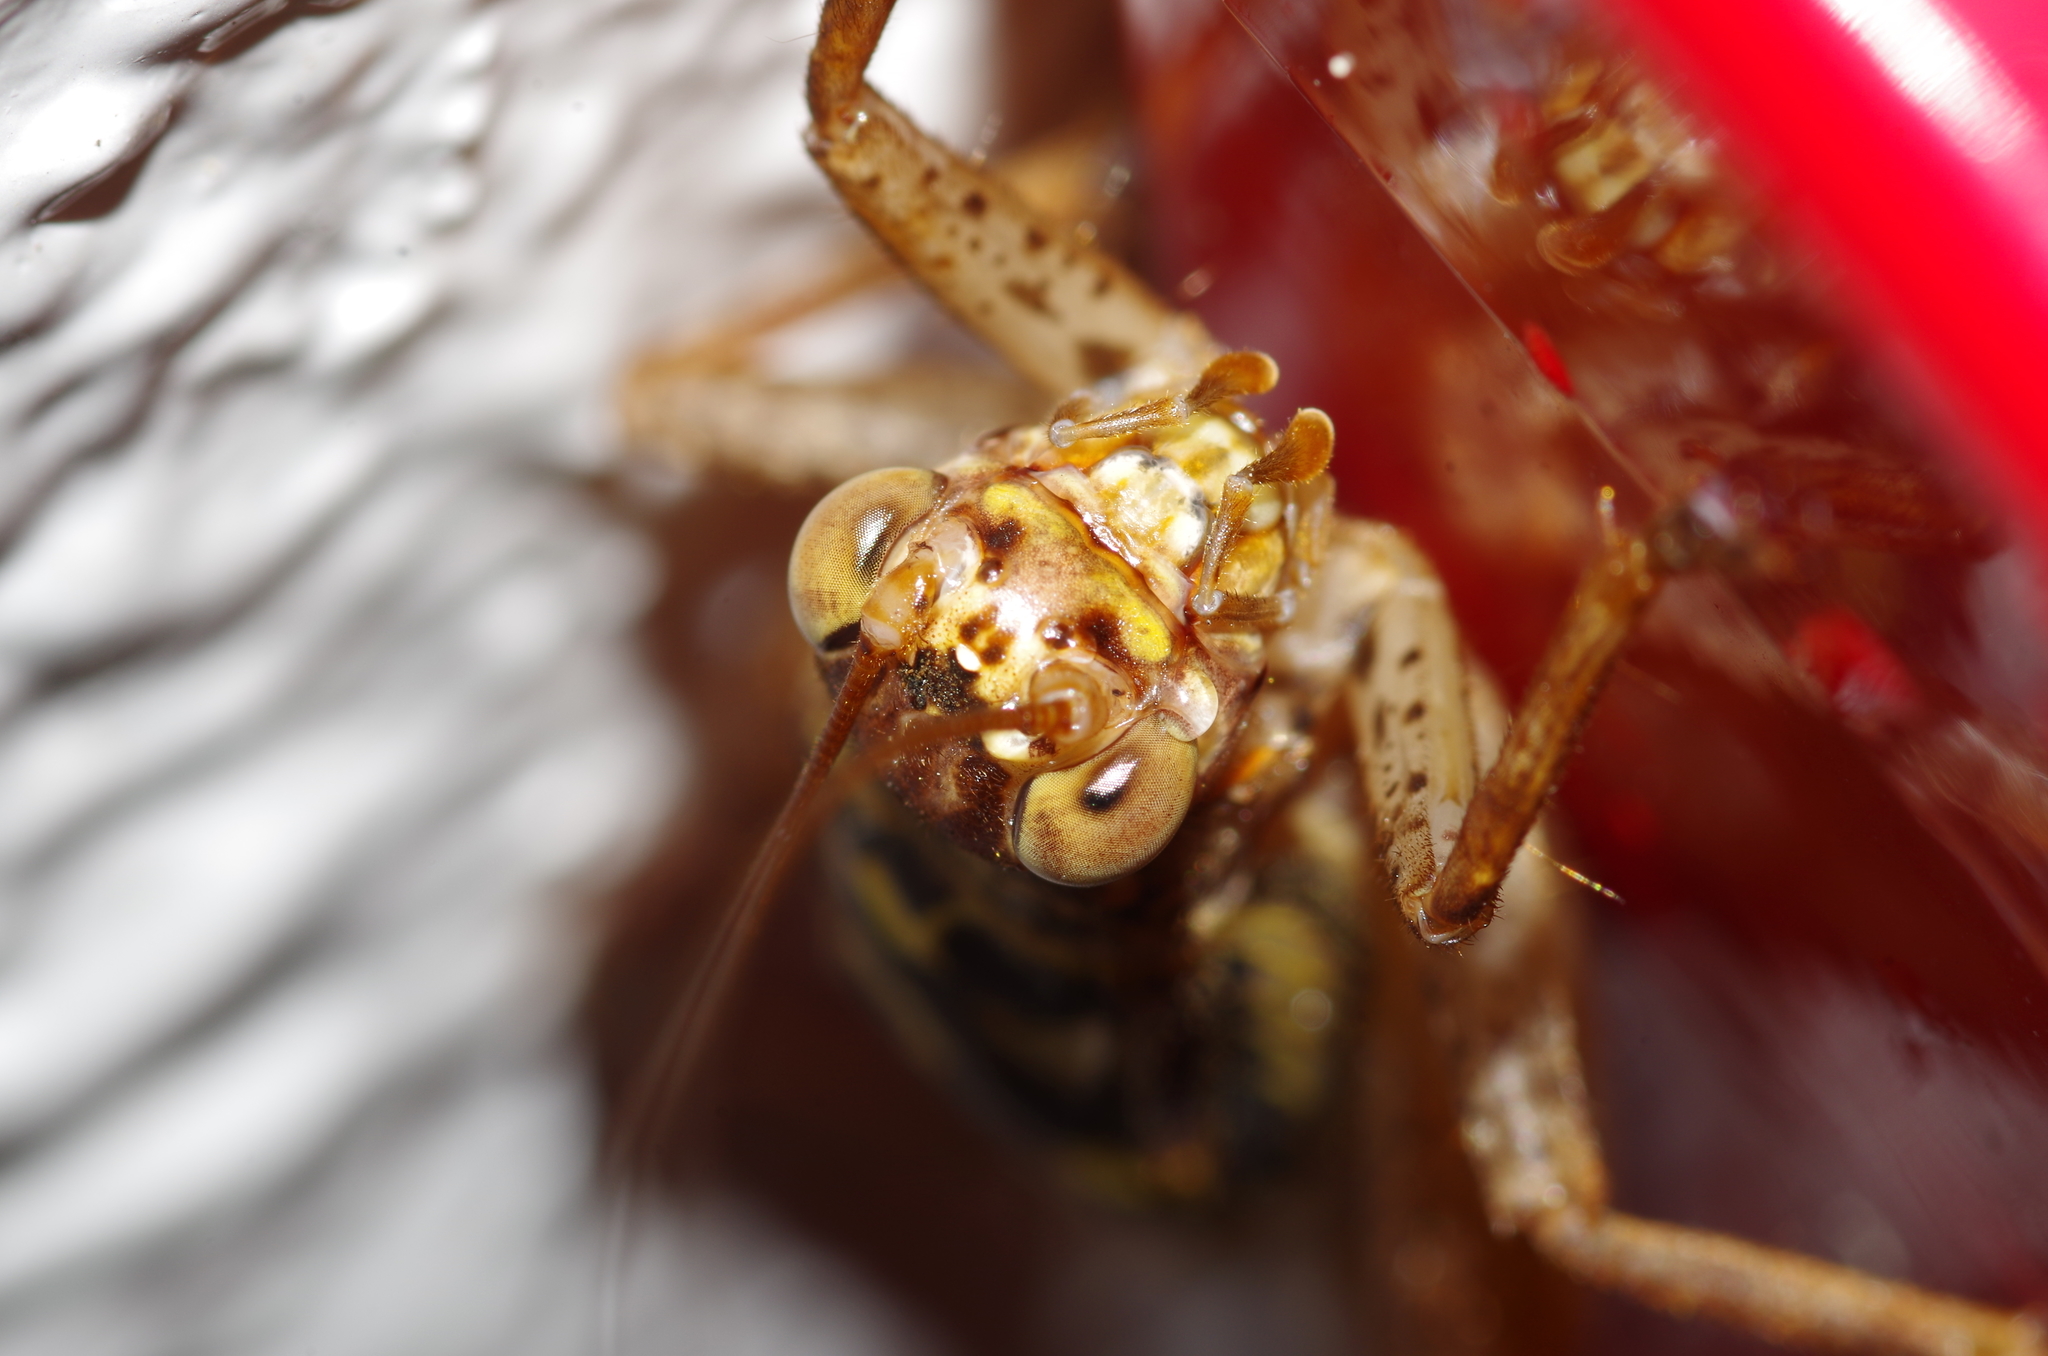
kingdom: Animalia
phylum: Arthropoda
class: Insecta
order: Orthoptera
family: Gryllidae
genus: Cardiodactylus
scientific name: Cardiodactylus guttulus
